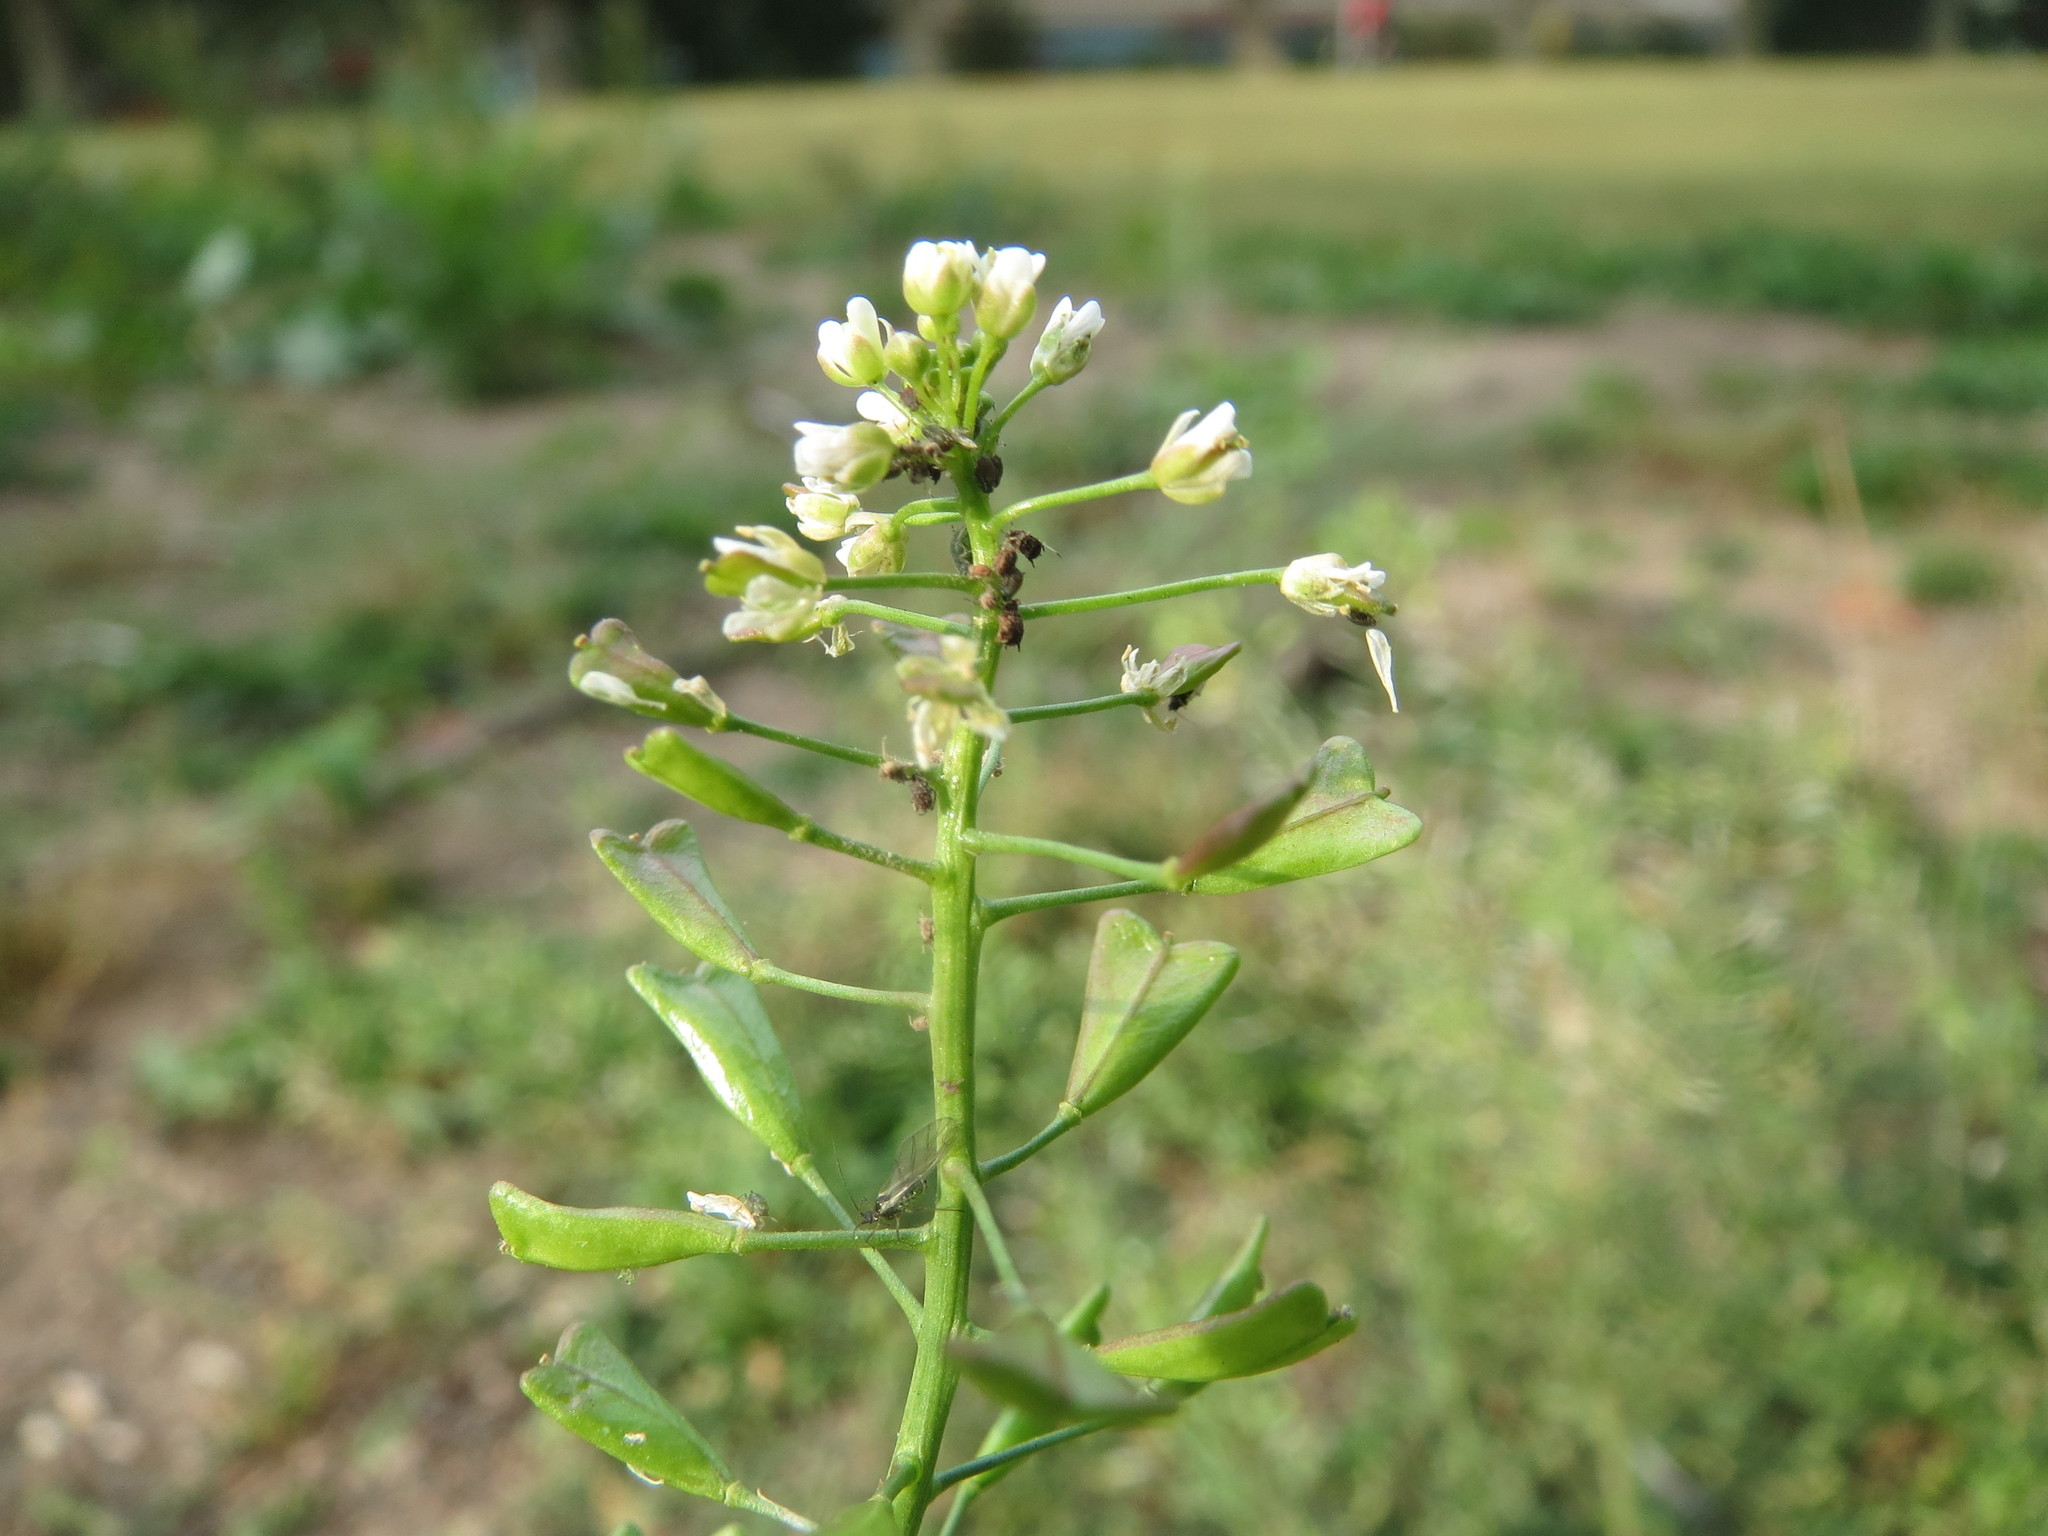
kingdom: Plantae
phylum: Tracheophyta
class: Magnoliopsida
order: Brassicales
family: Brassicaceae
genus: Capsella
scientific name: Capsella bursa-pastoris
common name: Shepherd's purse
